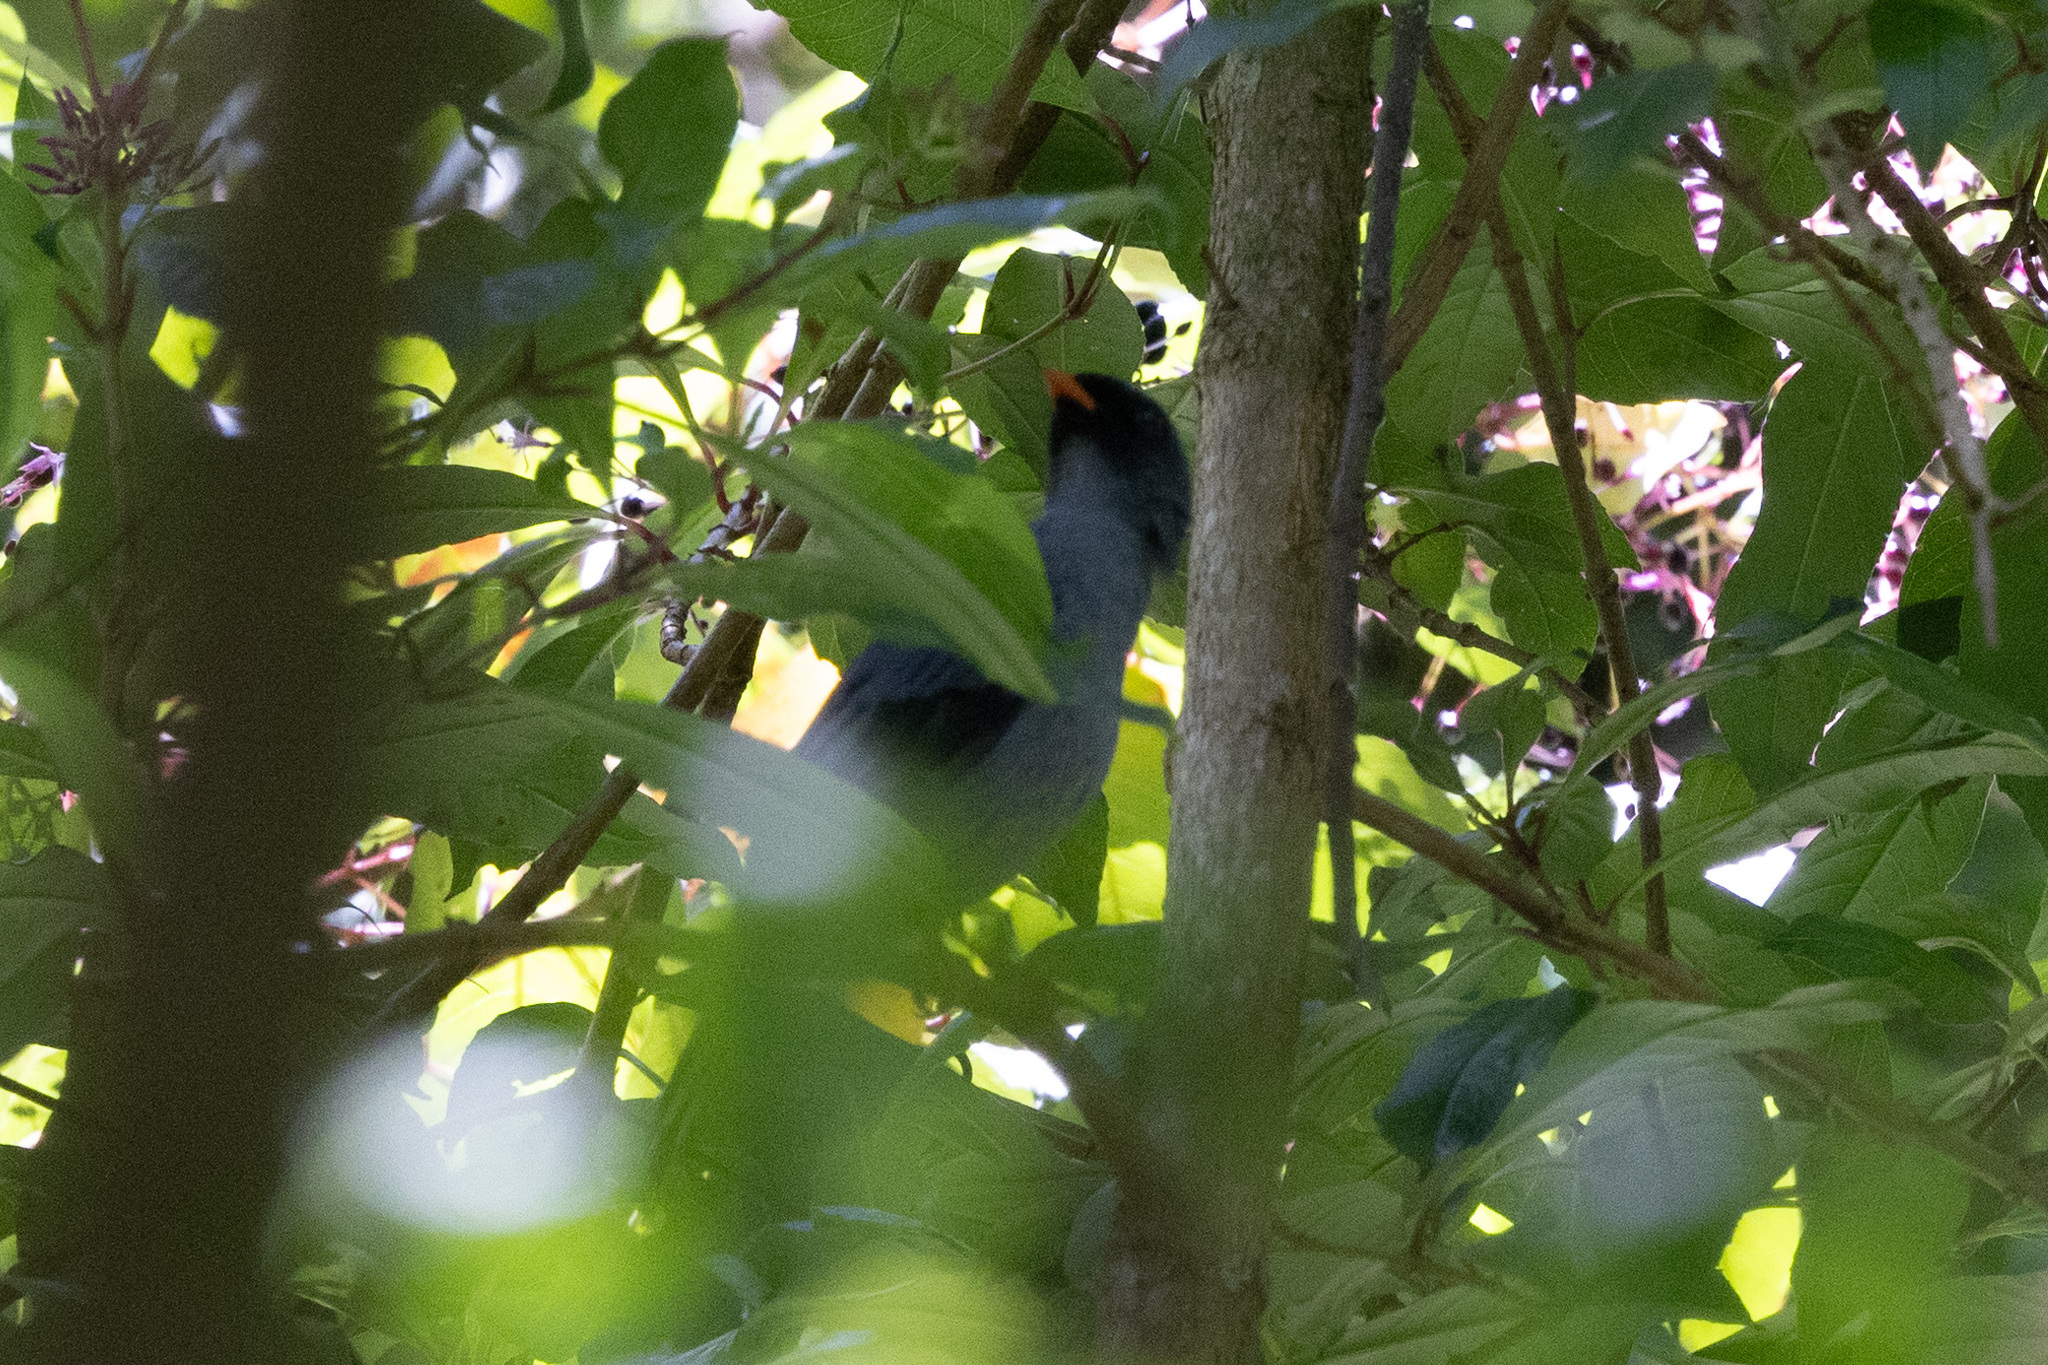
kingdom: Animalia
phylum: Chordata
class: Aves
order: Passeriformes
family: Turdidae
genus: Myadestes
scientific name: Myadestes melanops
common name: Black-faced solitaire
